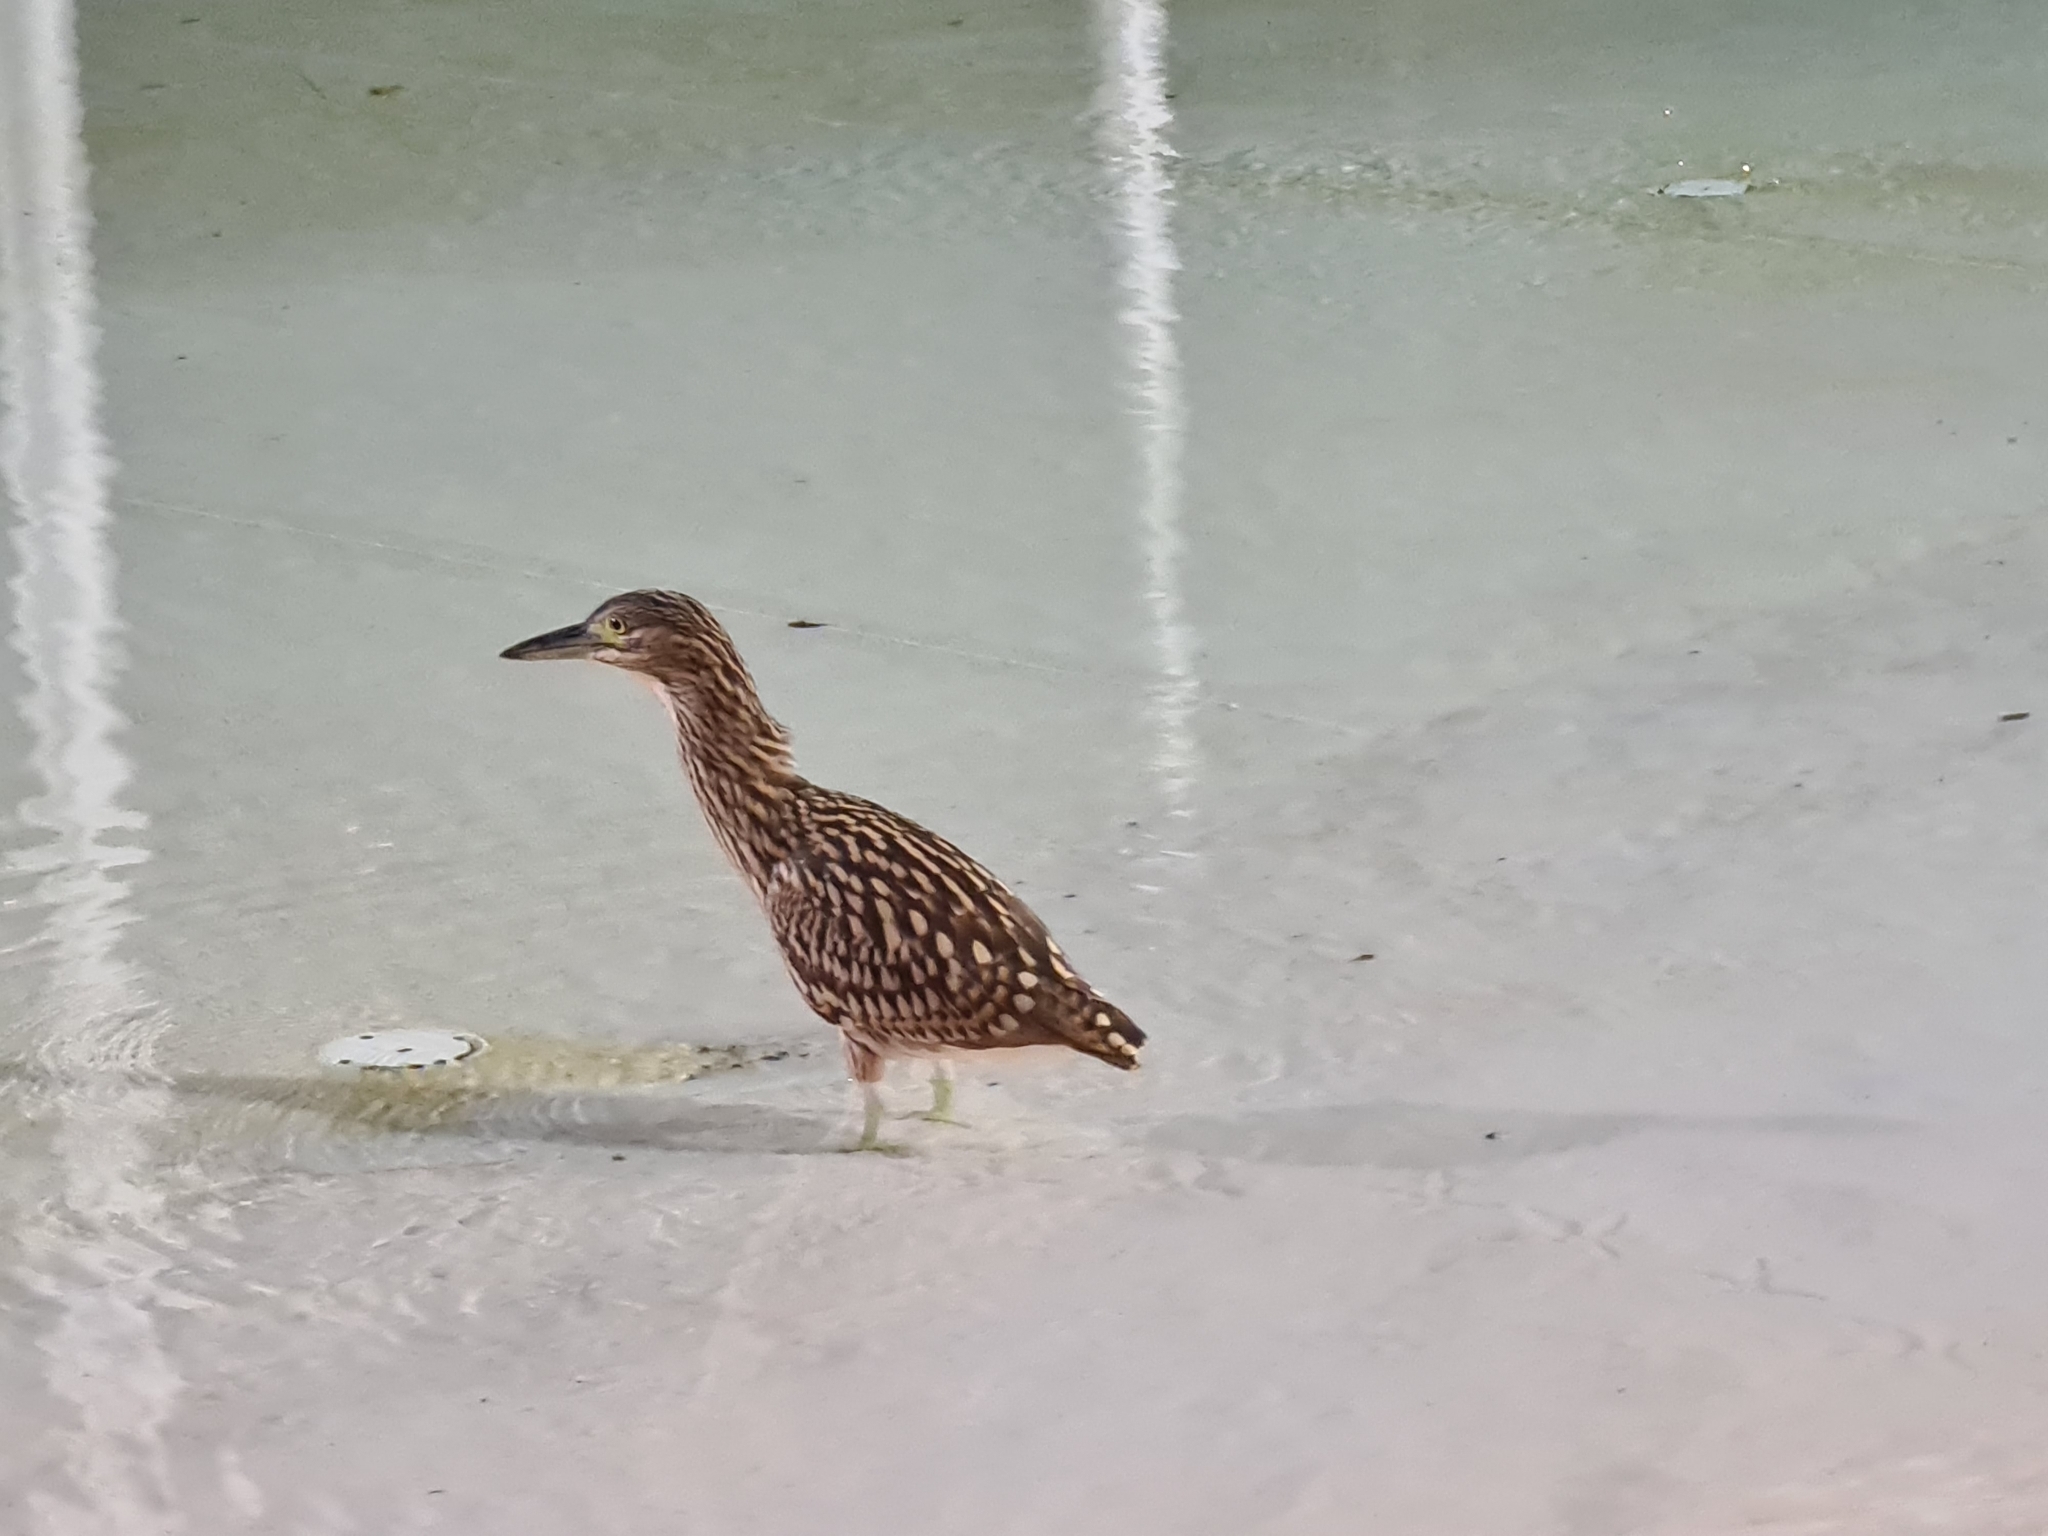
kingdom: Animalia
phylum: Chordata
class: Aves
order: Pelecaniformes
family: Ardeidae
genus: Nycticorax
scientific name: Nycticorax caledonicus
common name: Rufous night-heron
